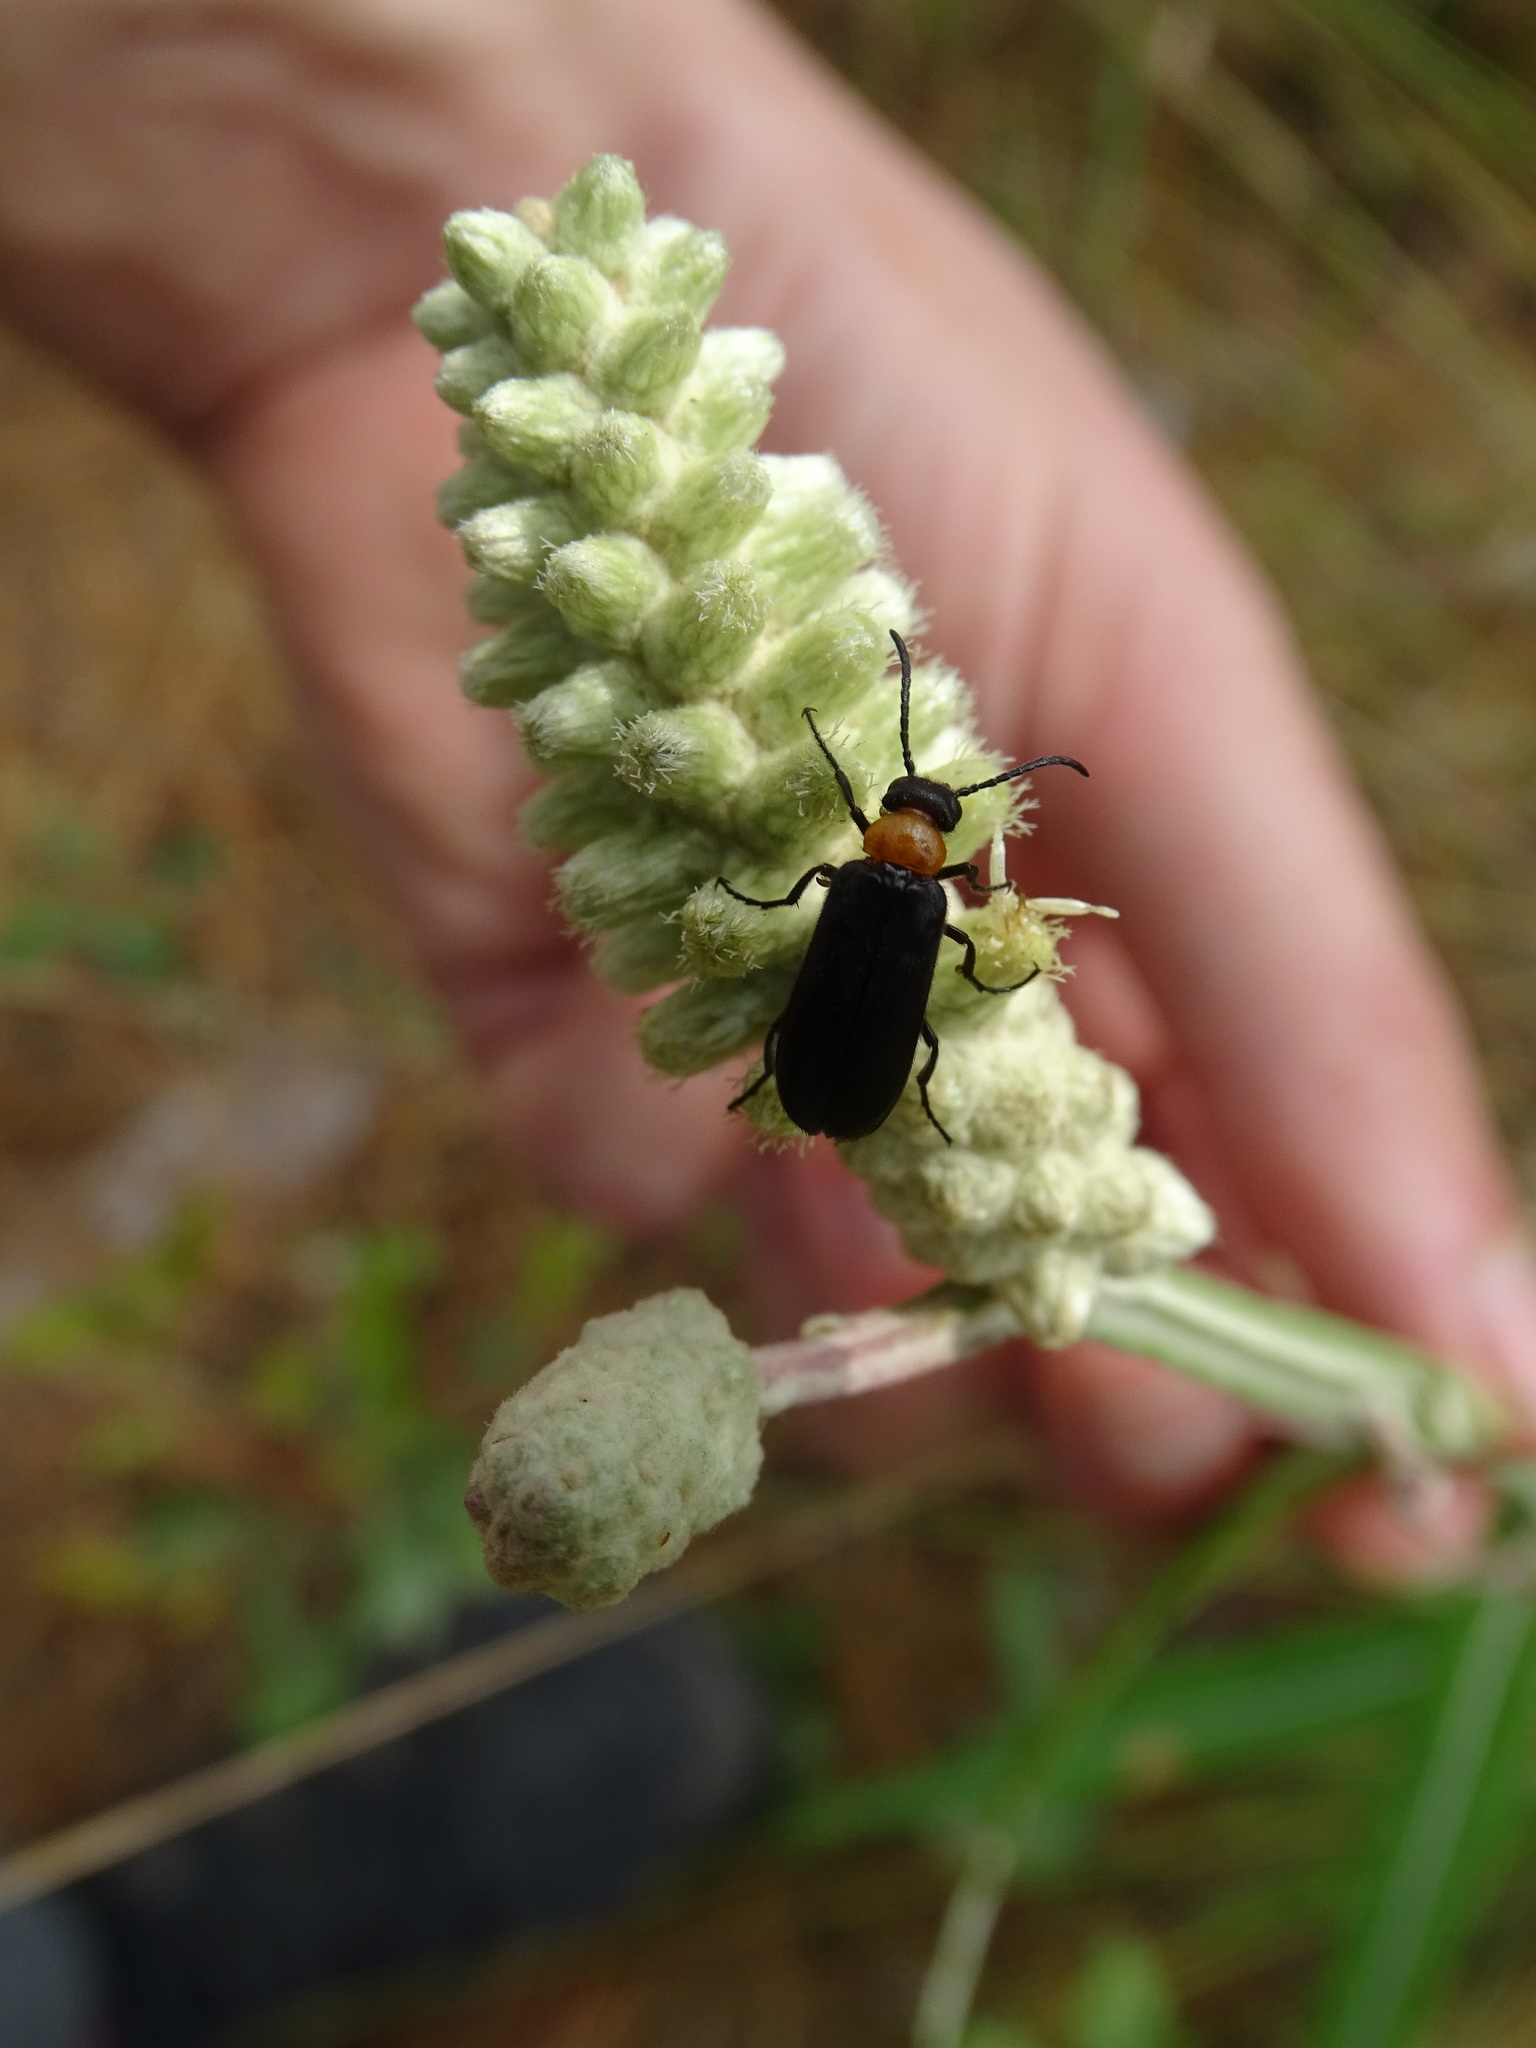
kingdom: Animalia
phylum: Arthropoda
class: Insecta
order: Coleoptera
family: Meloidae
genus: Nemognatha
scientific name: Nemognatha nemorensis
